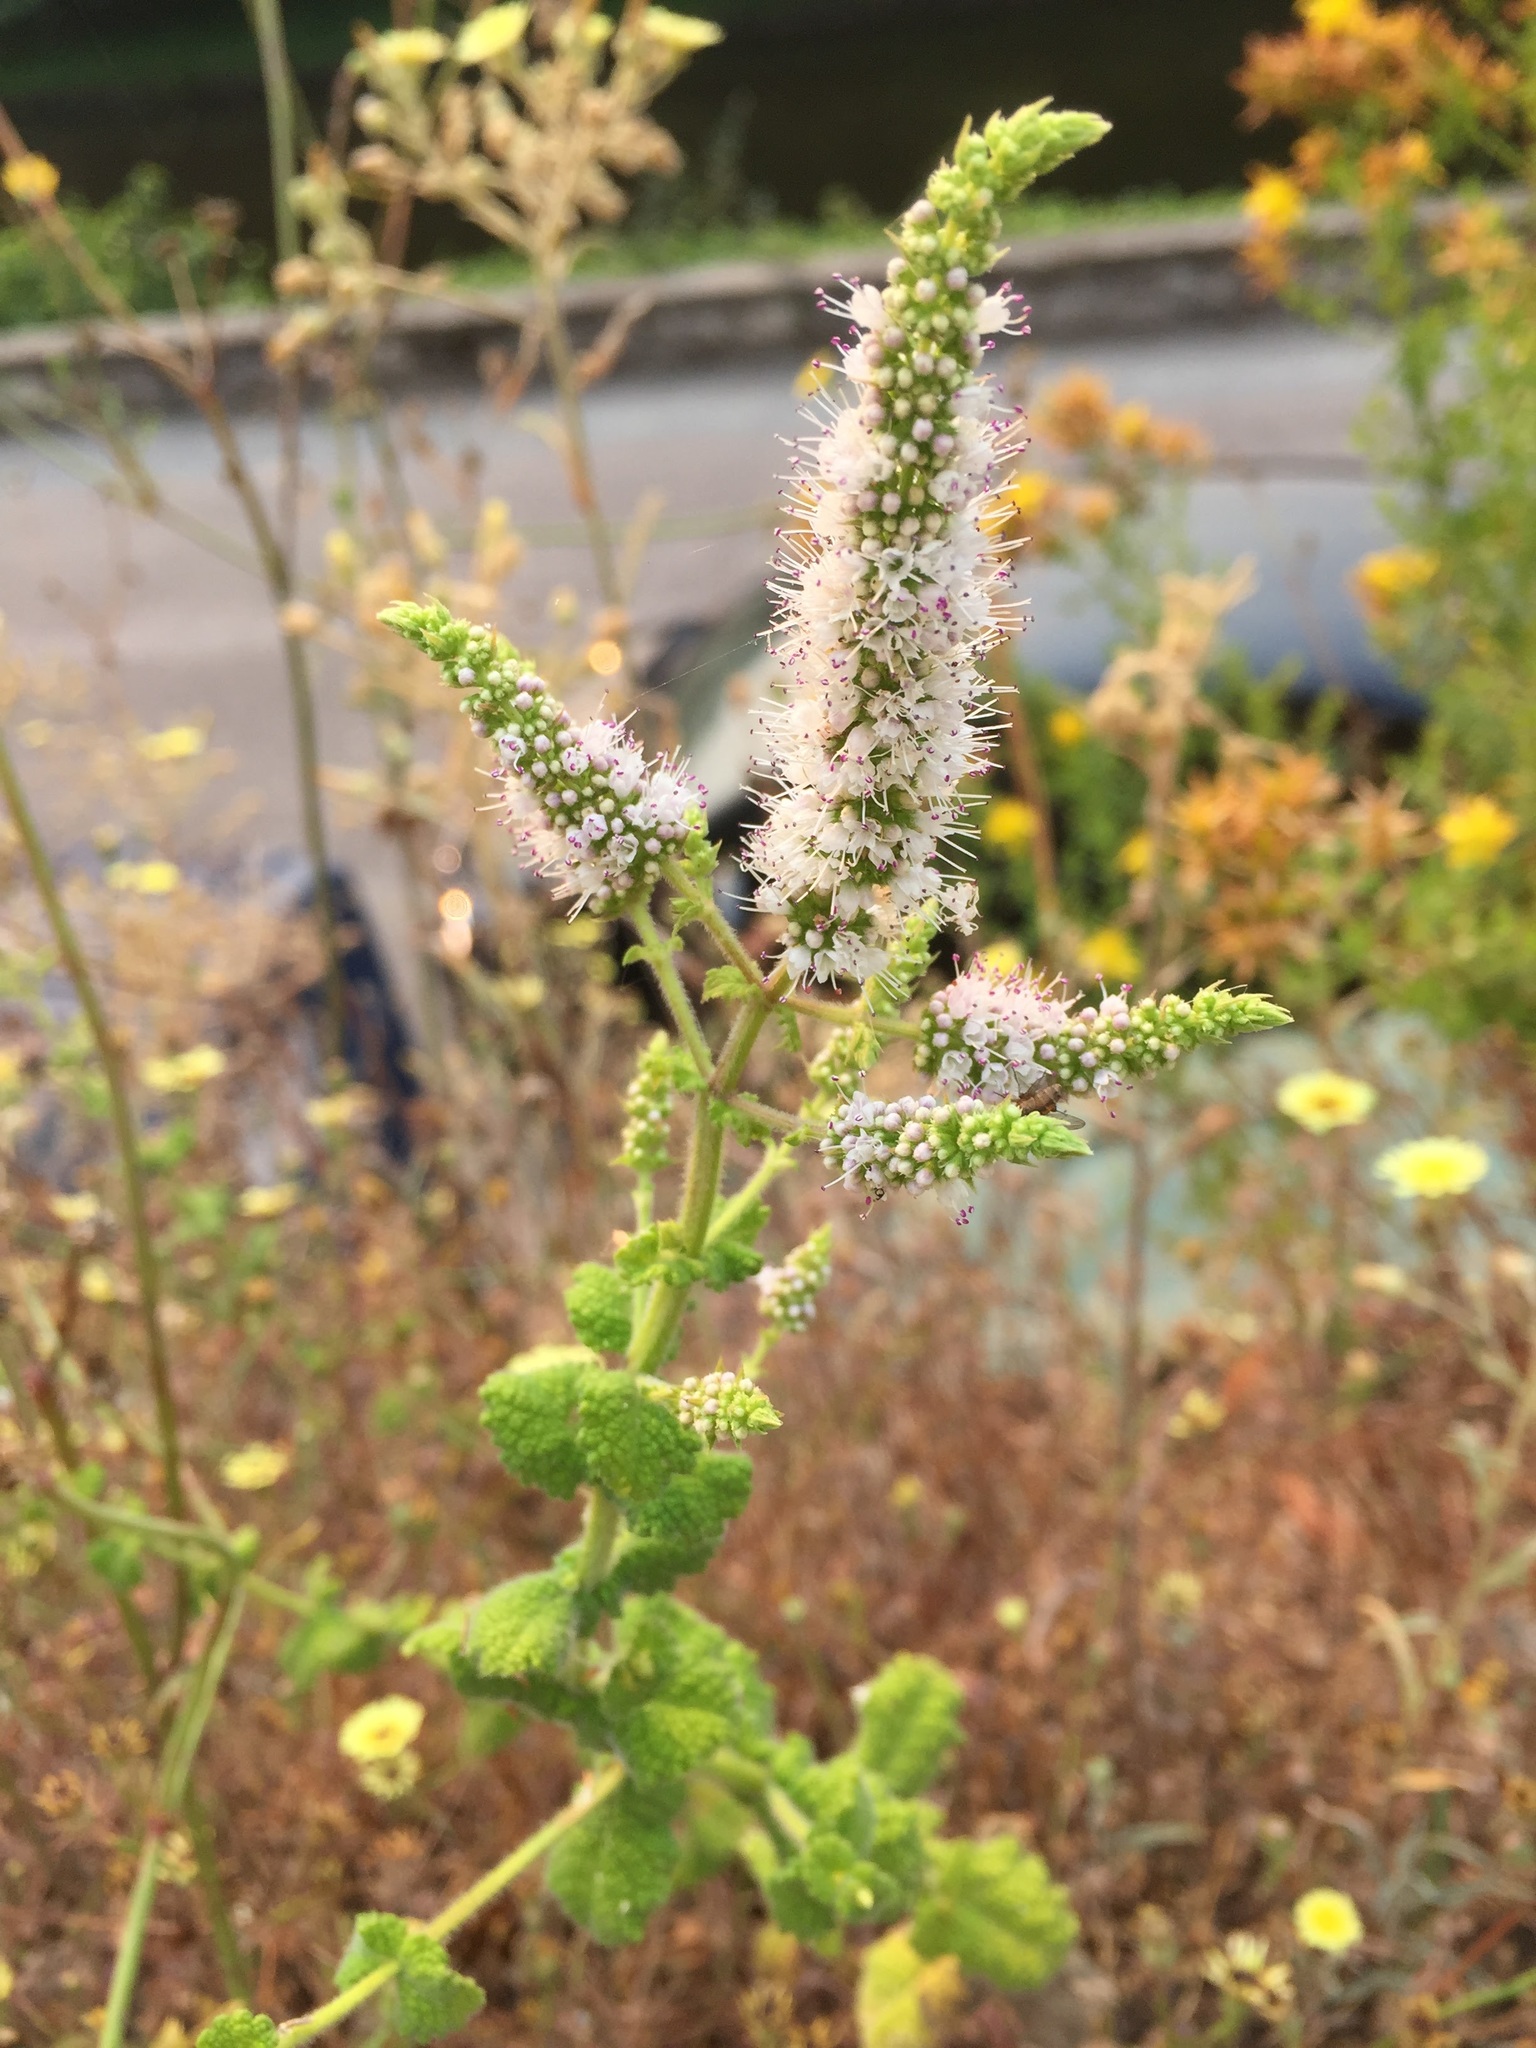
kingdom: Plantae
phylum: Tracheophyta
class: Magnoliopsida
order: Lamiales
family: Lamiaceae
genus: Mentha
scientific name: Mentha suaveolens
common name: Apple mint
